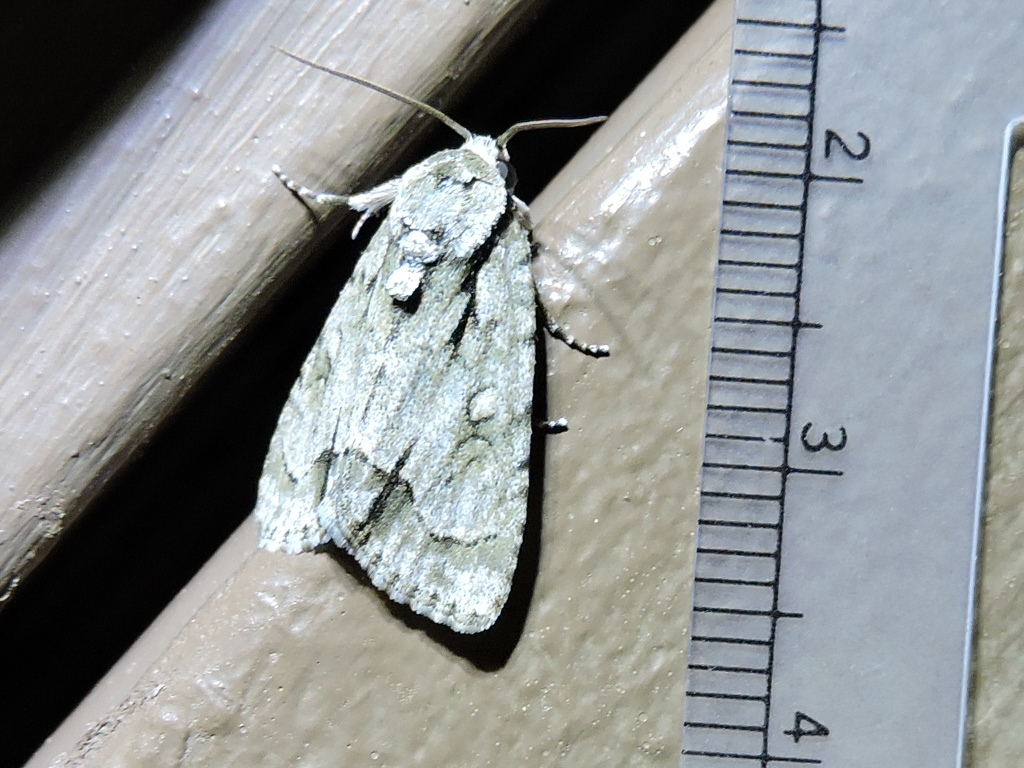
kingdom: Animalia
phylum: Arthropoda
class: Insecta
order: Lepidoptera
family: Noctuidae
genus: Acronicta
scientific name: Acronicta vinnula
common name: Delightful dagger
